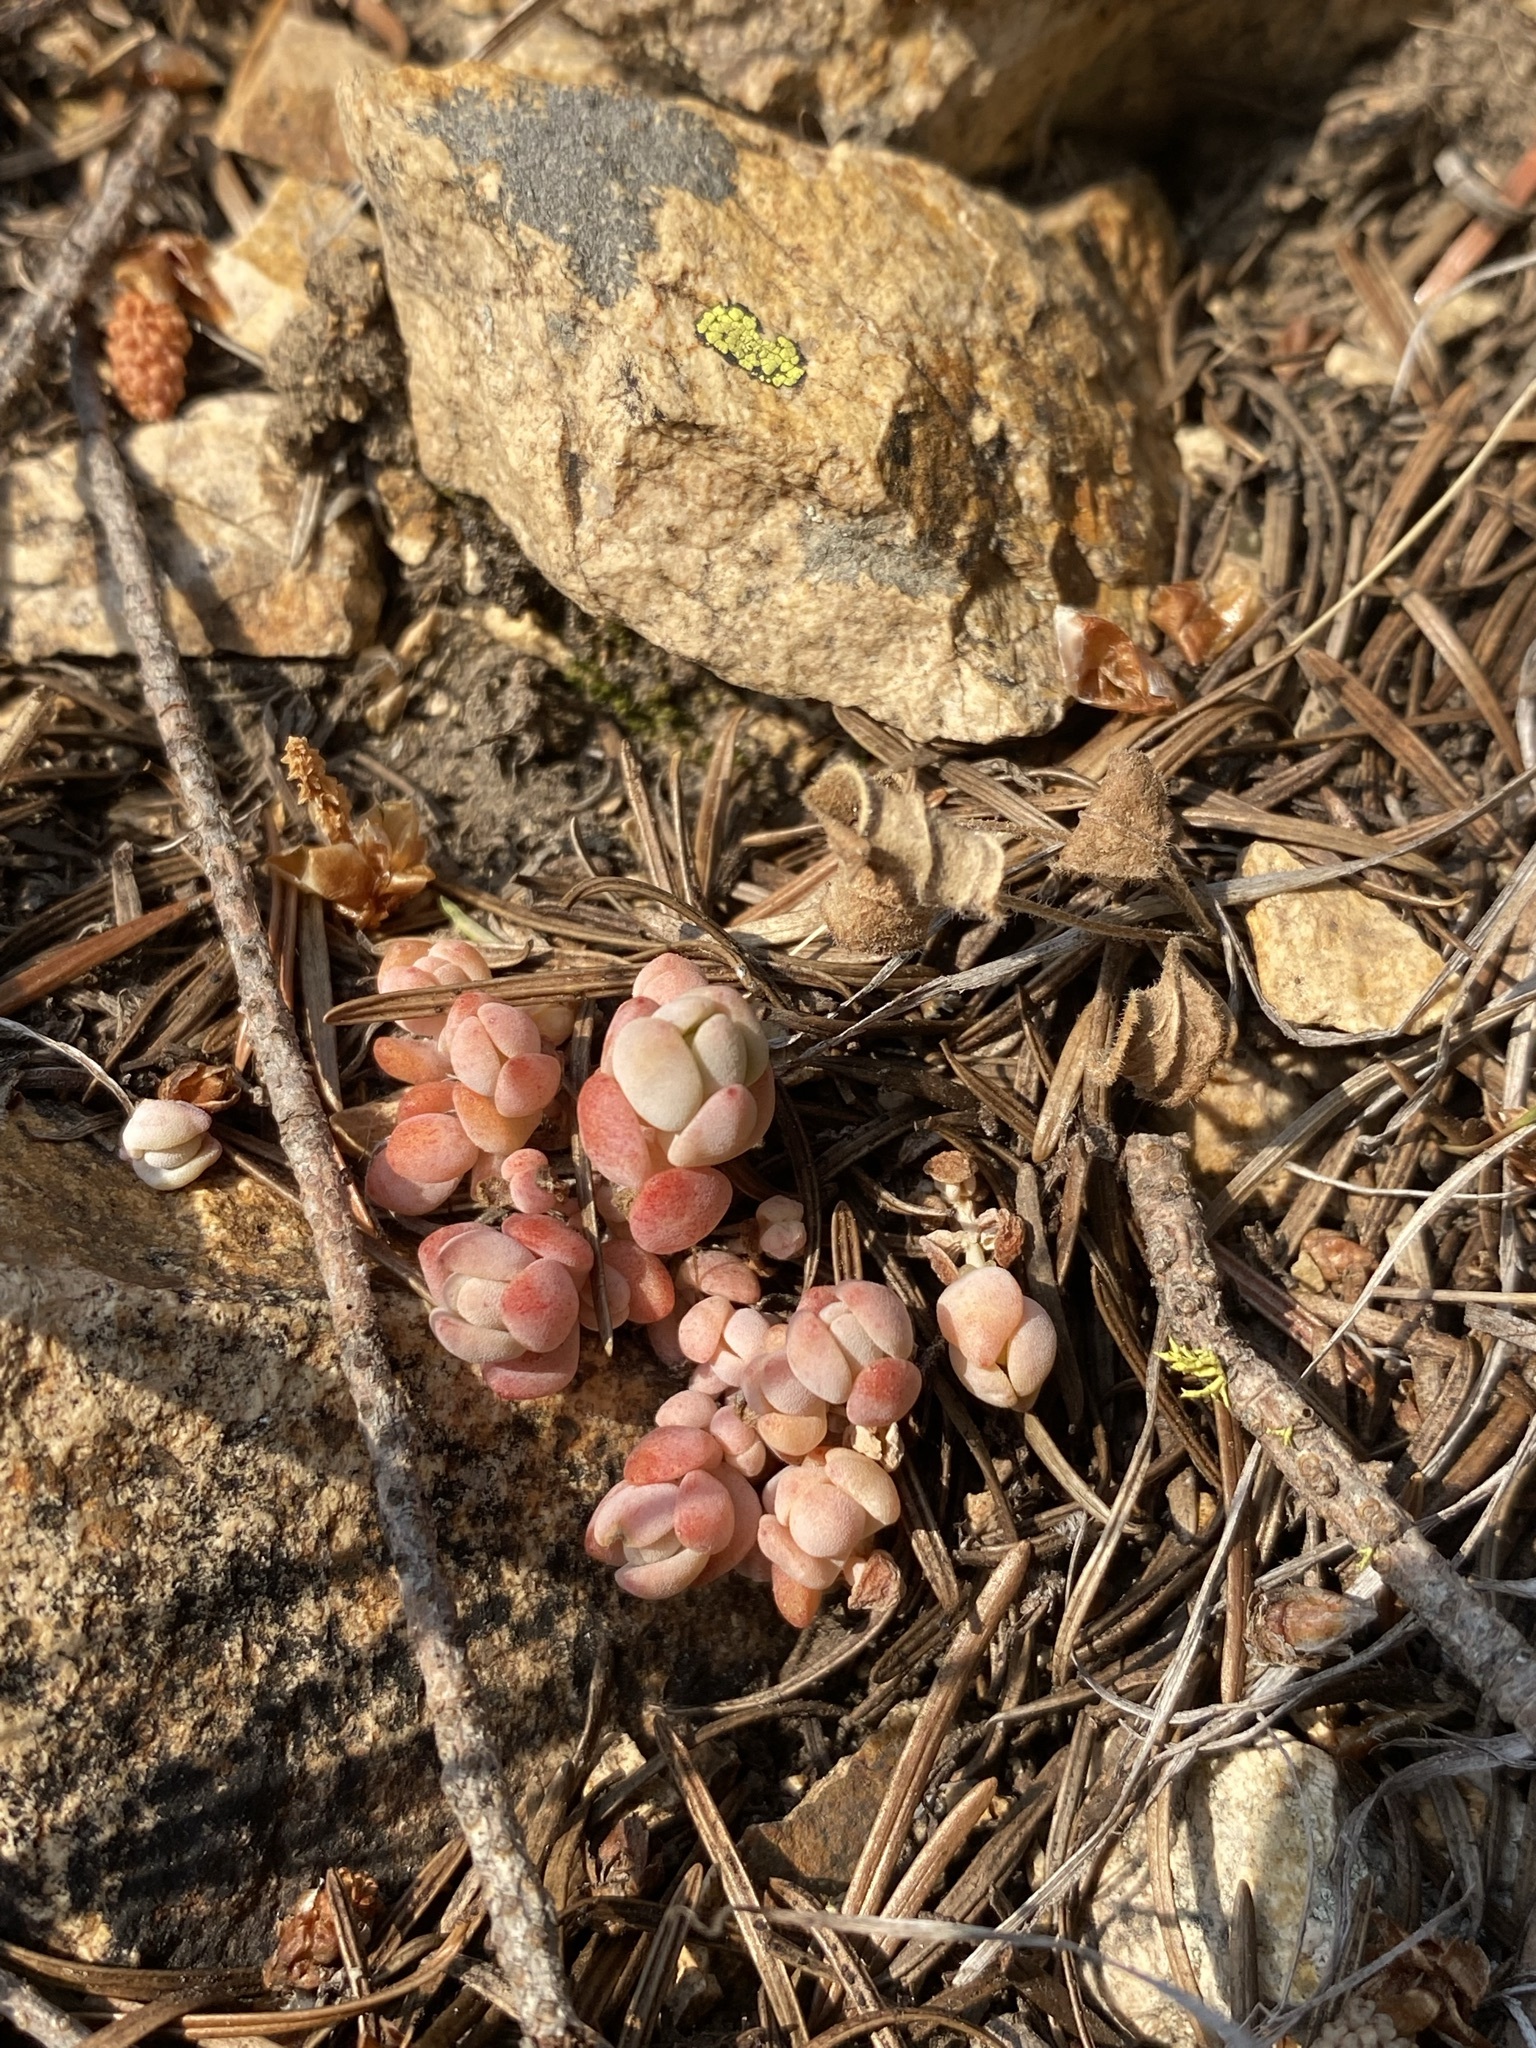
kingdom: Plantae
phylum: Tracheophyta
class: Magnoliopsida
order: Saxifragales
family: Crassulaceae
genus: Sedum
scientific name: Sedum debile
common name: Weak-stem stonecrop
